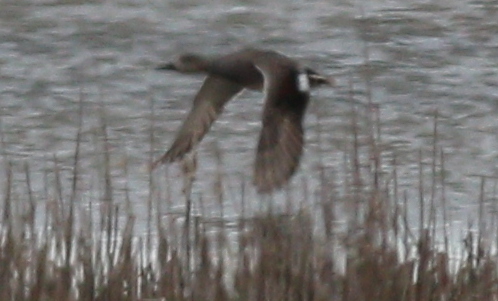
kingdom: Animalia
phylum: Chordata
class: Aves
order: Anseriformes
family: Anatidae
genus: Mareca
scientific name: Mareca strepera
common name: Gadwall
